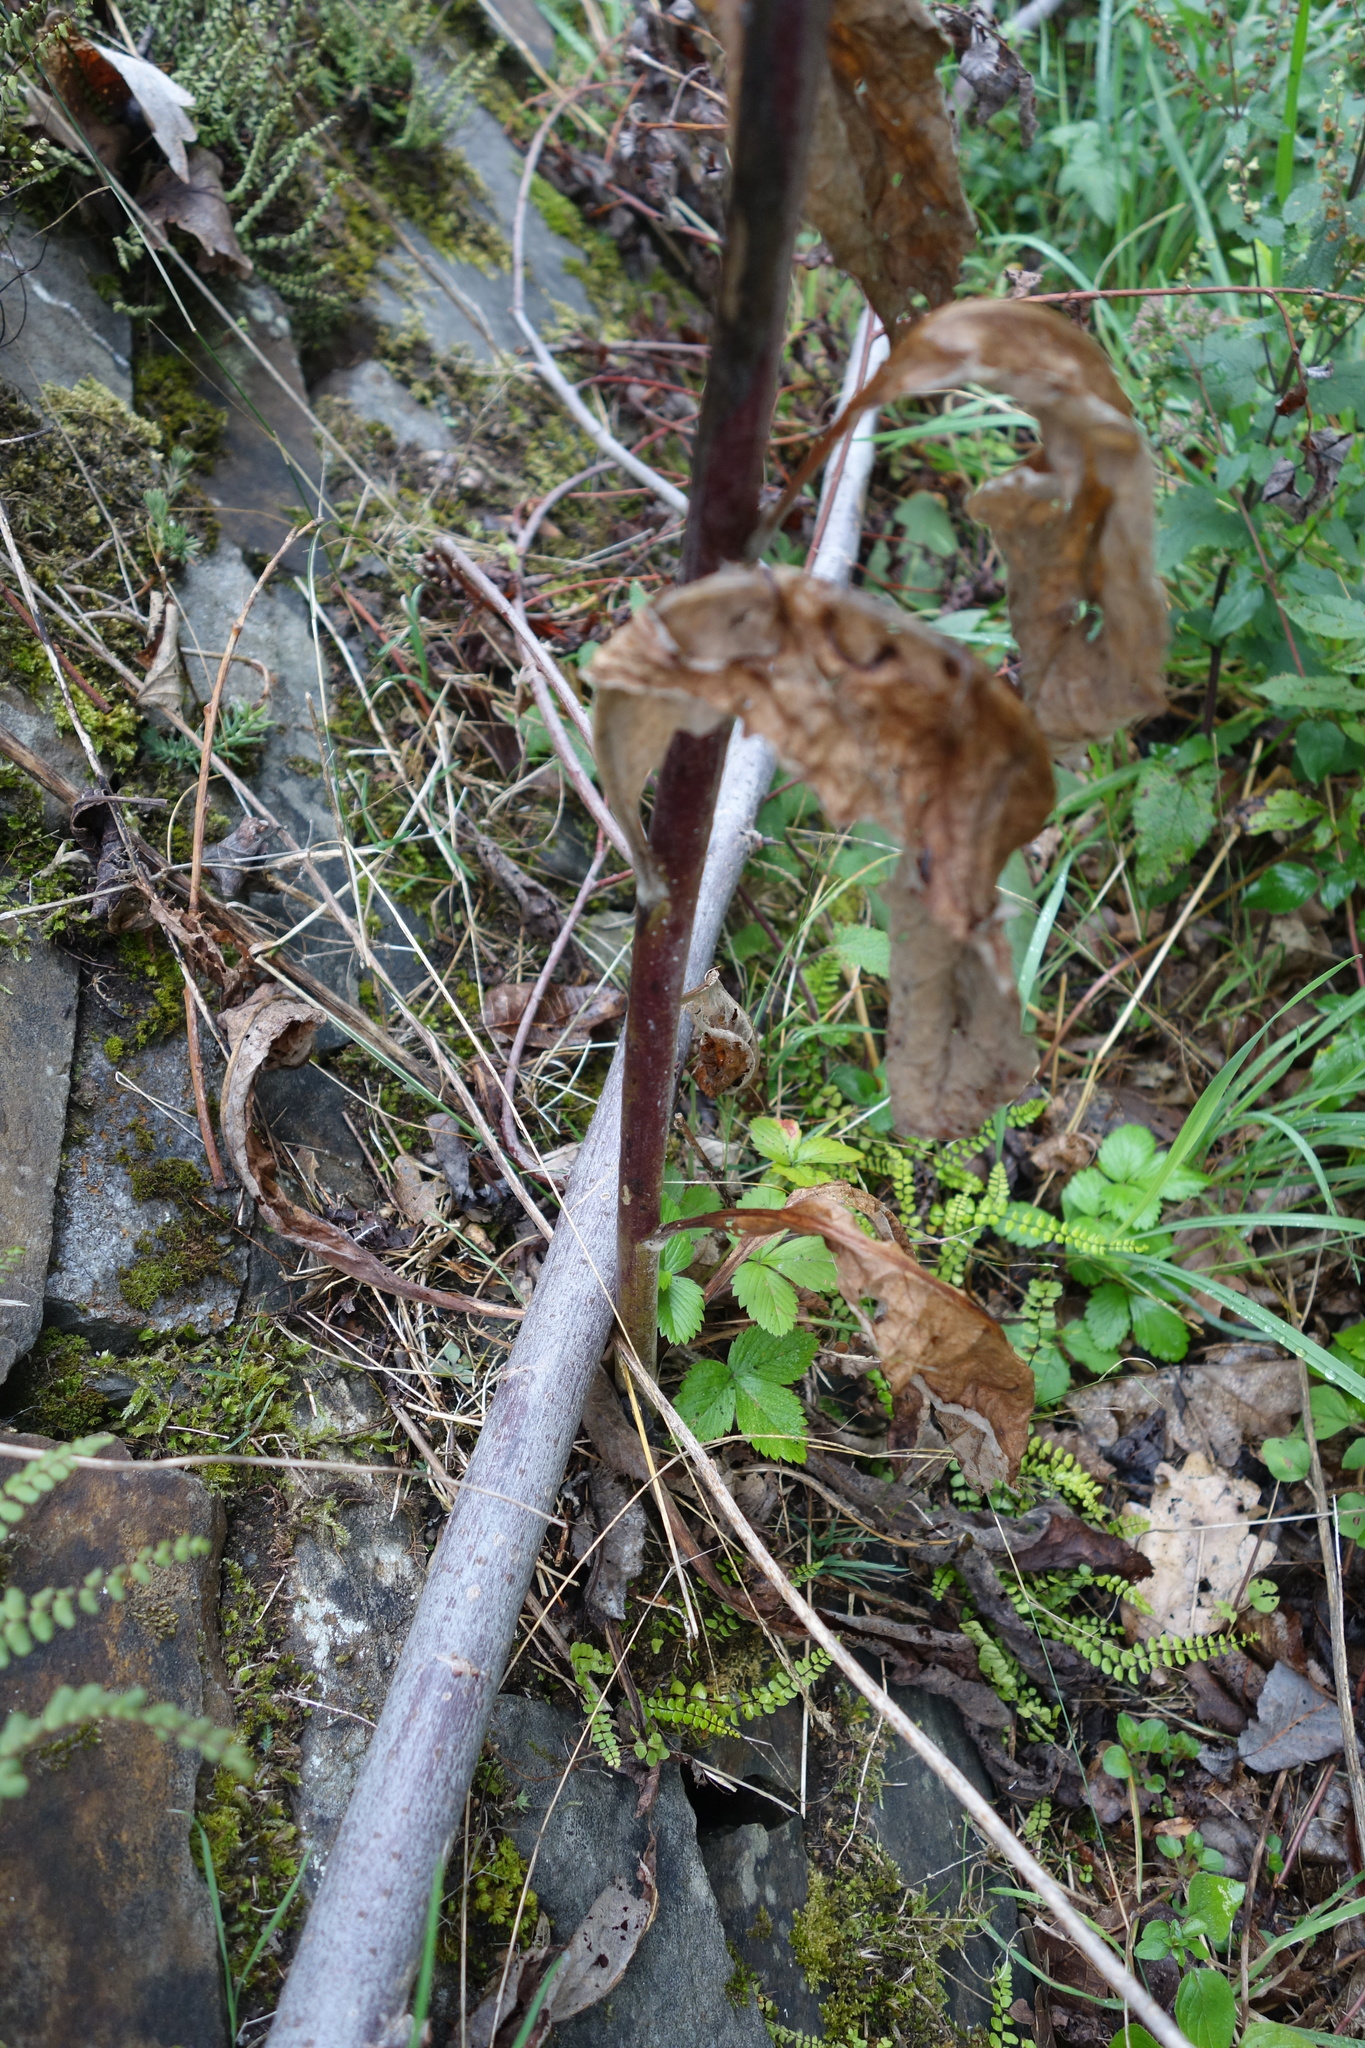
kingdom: Plantae
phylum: Tracheophyta
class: Magnoliopsida
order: Lamiales
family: Scrophulariaceae
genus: Verbascum
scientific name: Verbascum lychnitis
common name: White mullein
